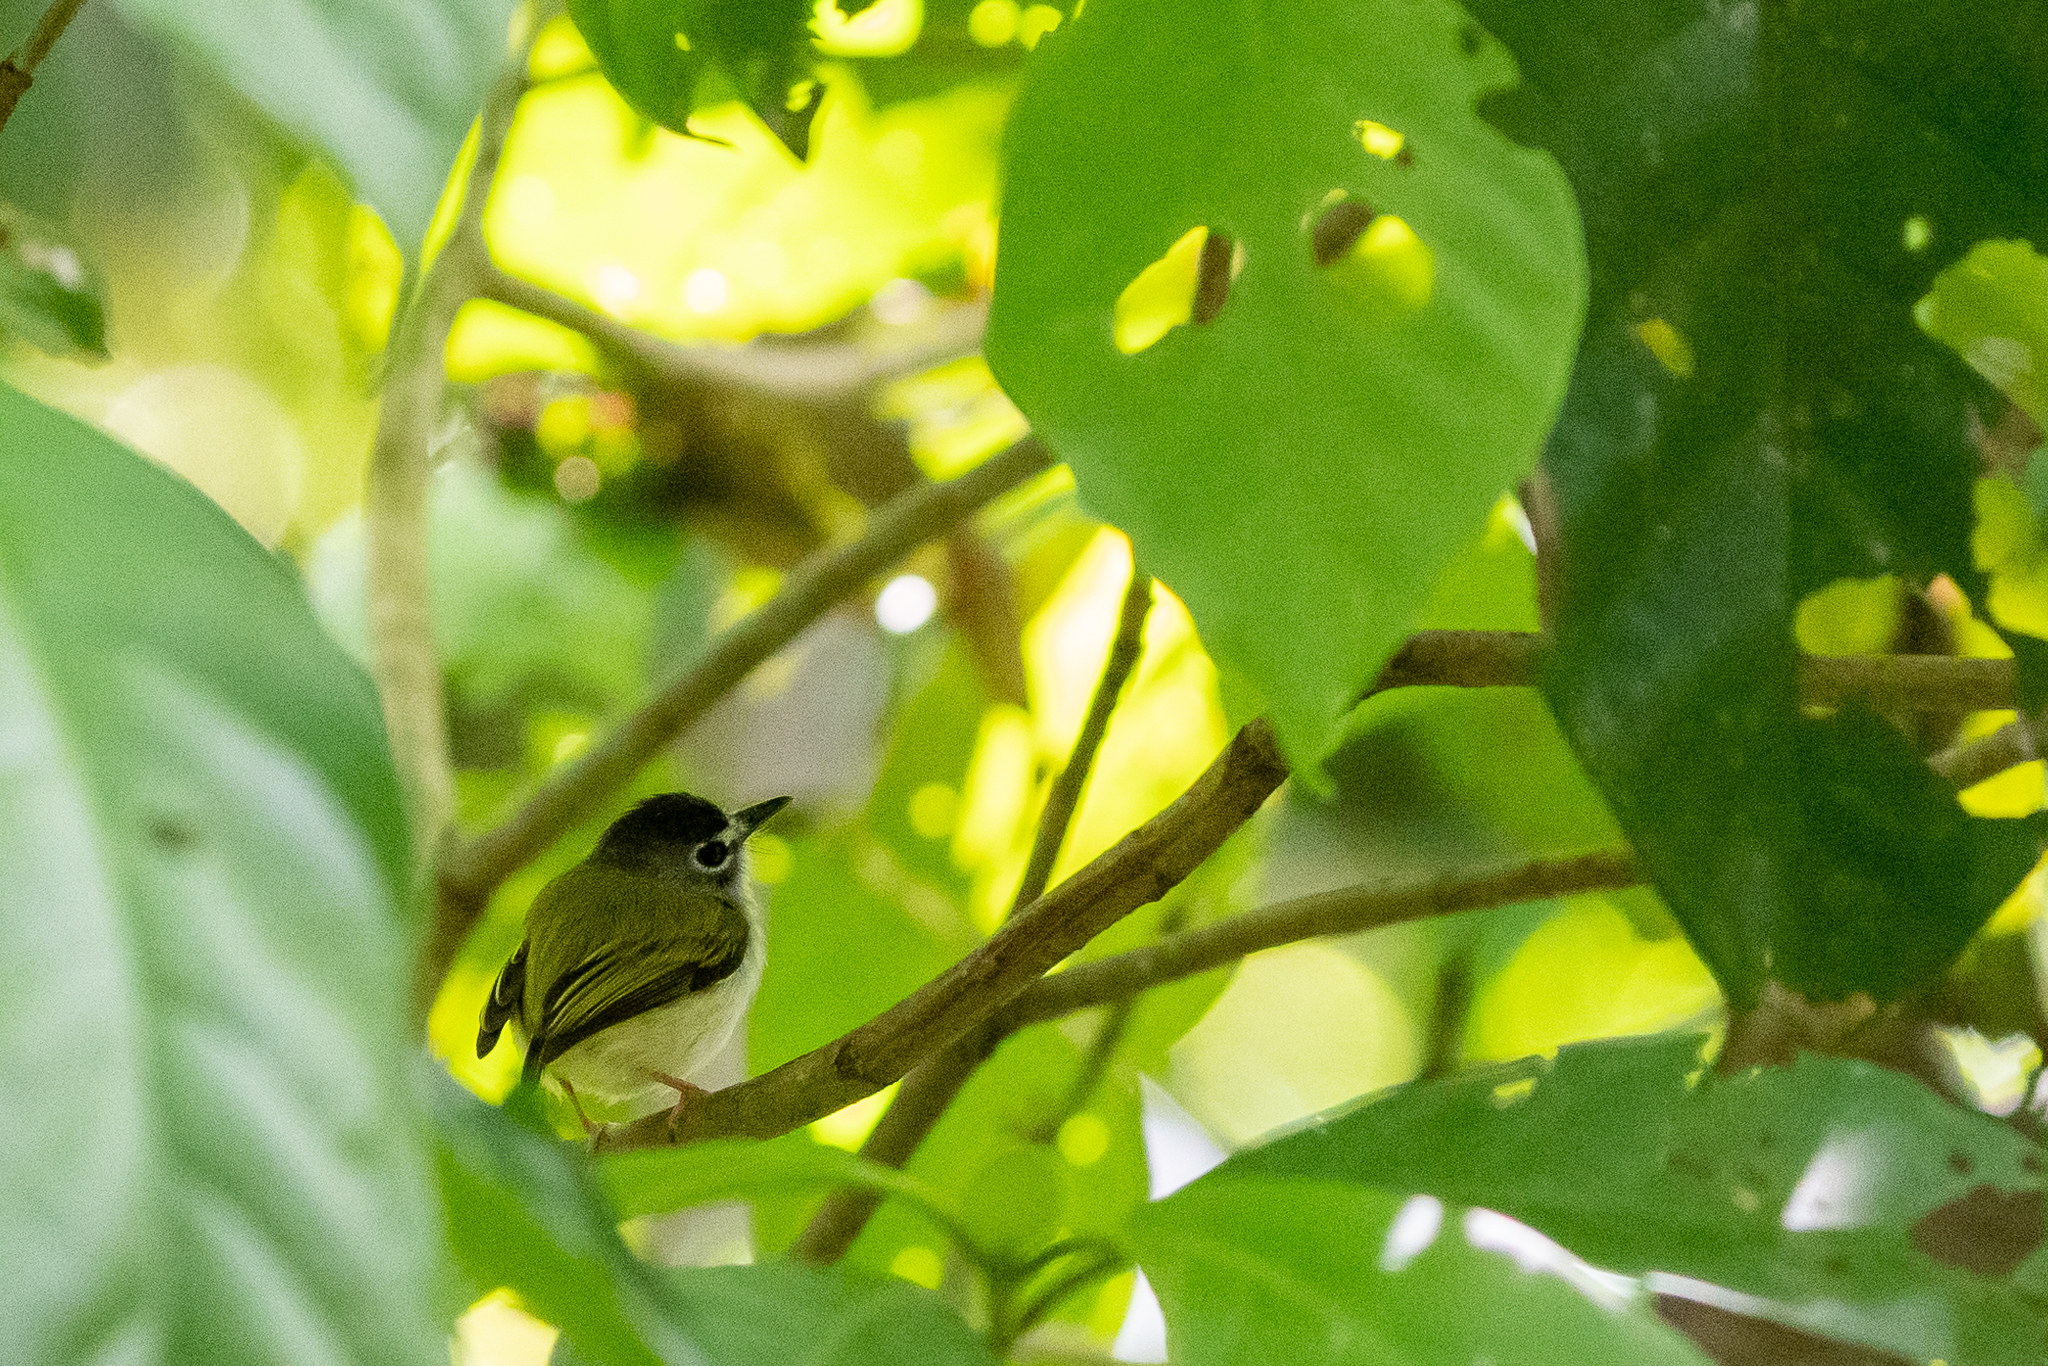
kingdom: Animalia
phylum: Chordata
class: Aves
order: Passeriformes
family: Tyrannidae
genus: Myiornis
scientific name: Myiornis atricapillus
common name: Black-capped pygmy-tyrant
